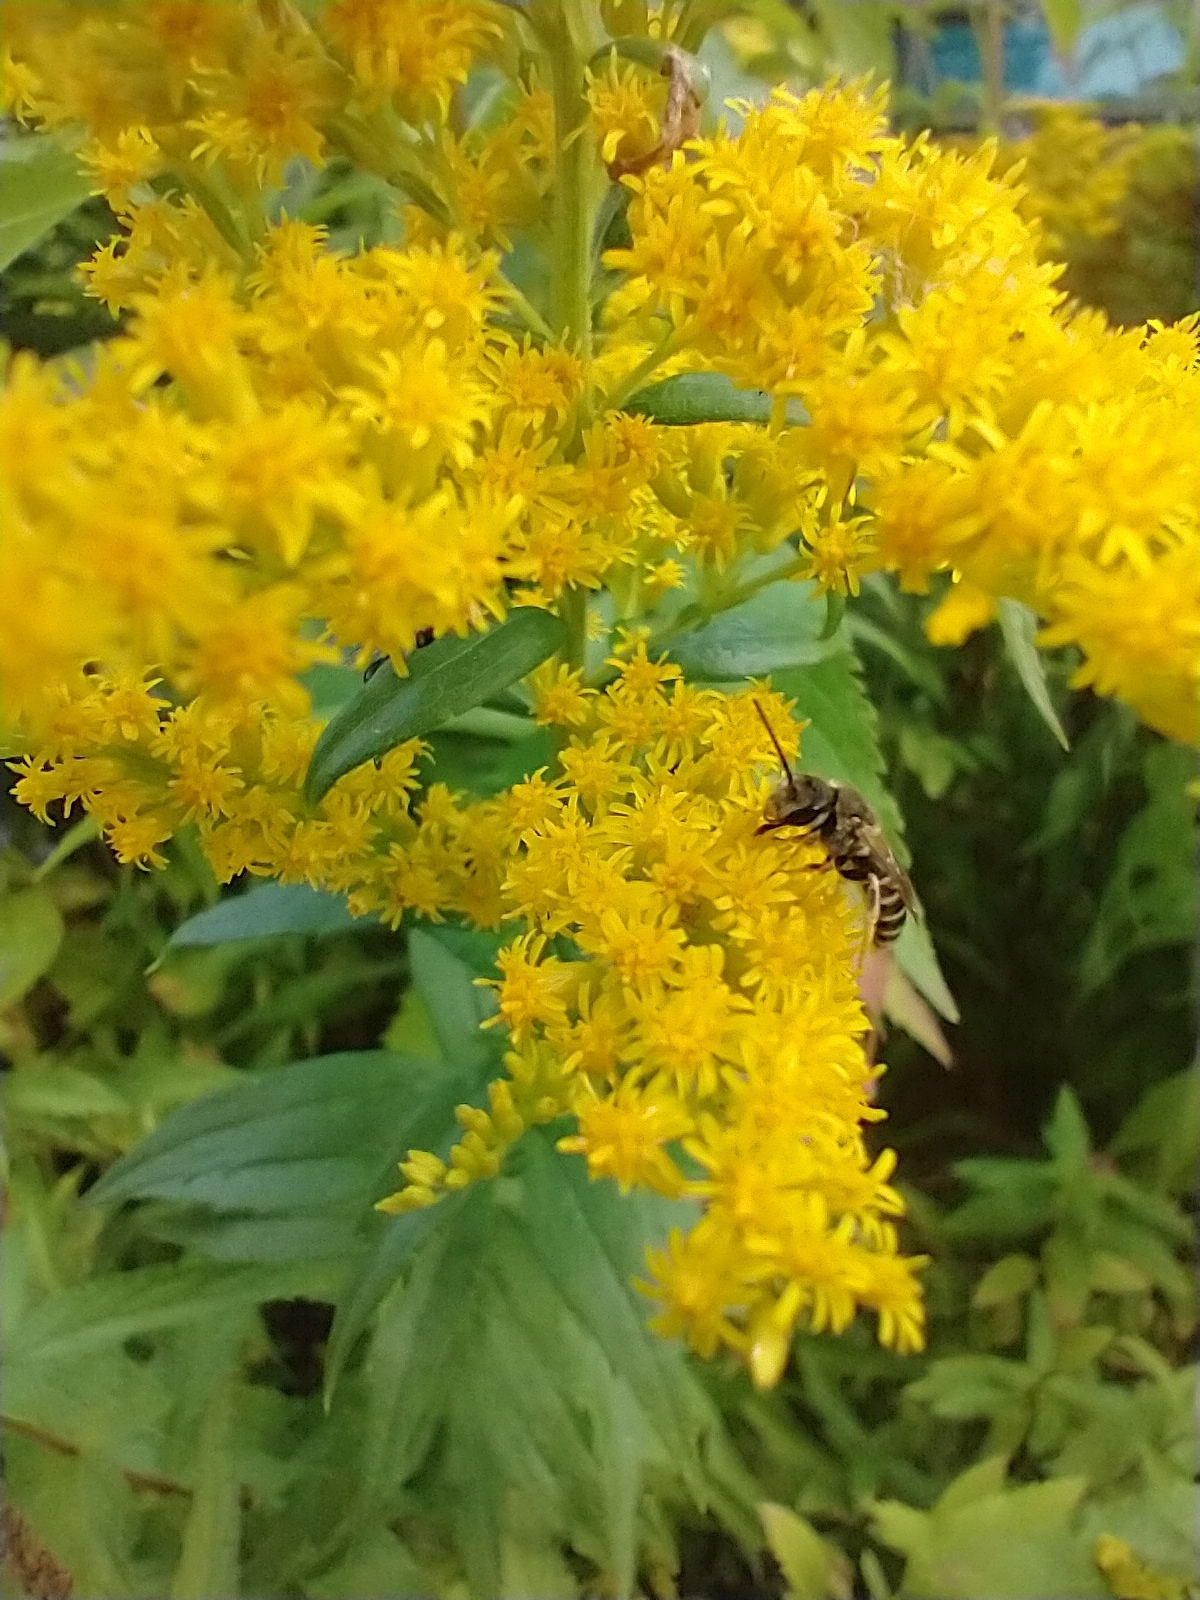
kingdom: Animalia
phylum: Arthropoda
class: Insecta
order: Hymenoptera
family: Halictidae
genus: Halictus
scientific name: Halictus ligatus
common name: Ligated furrow bee
